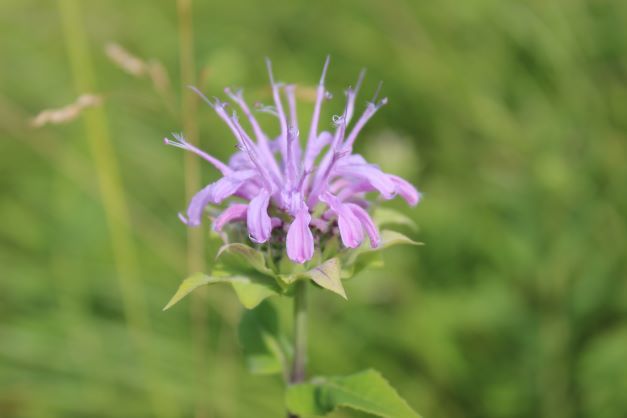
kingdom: Plantae
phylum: Tracheophyta
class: Magnoliopsida
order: Lamiales
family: Lamiaceae
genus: Monarda
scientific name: Monarda fistulosa
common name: Purple beebalm
